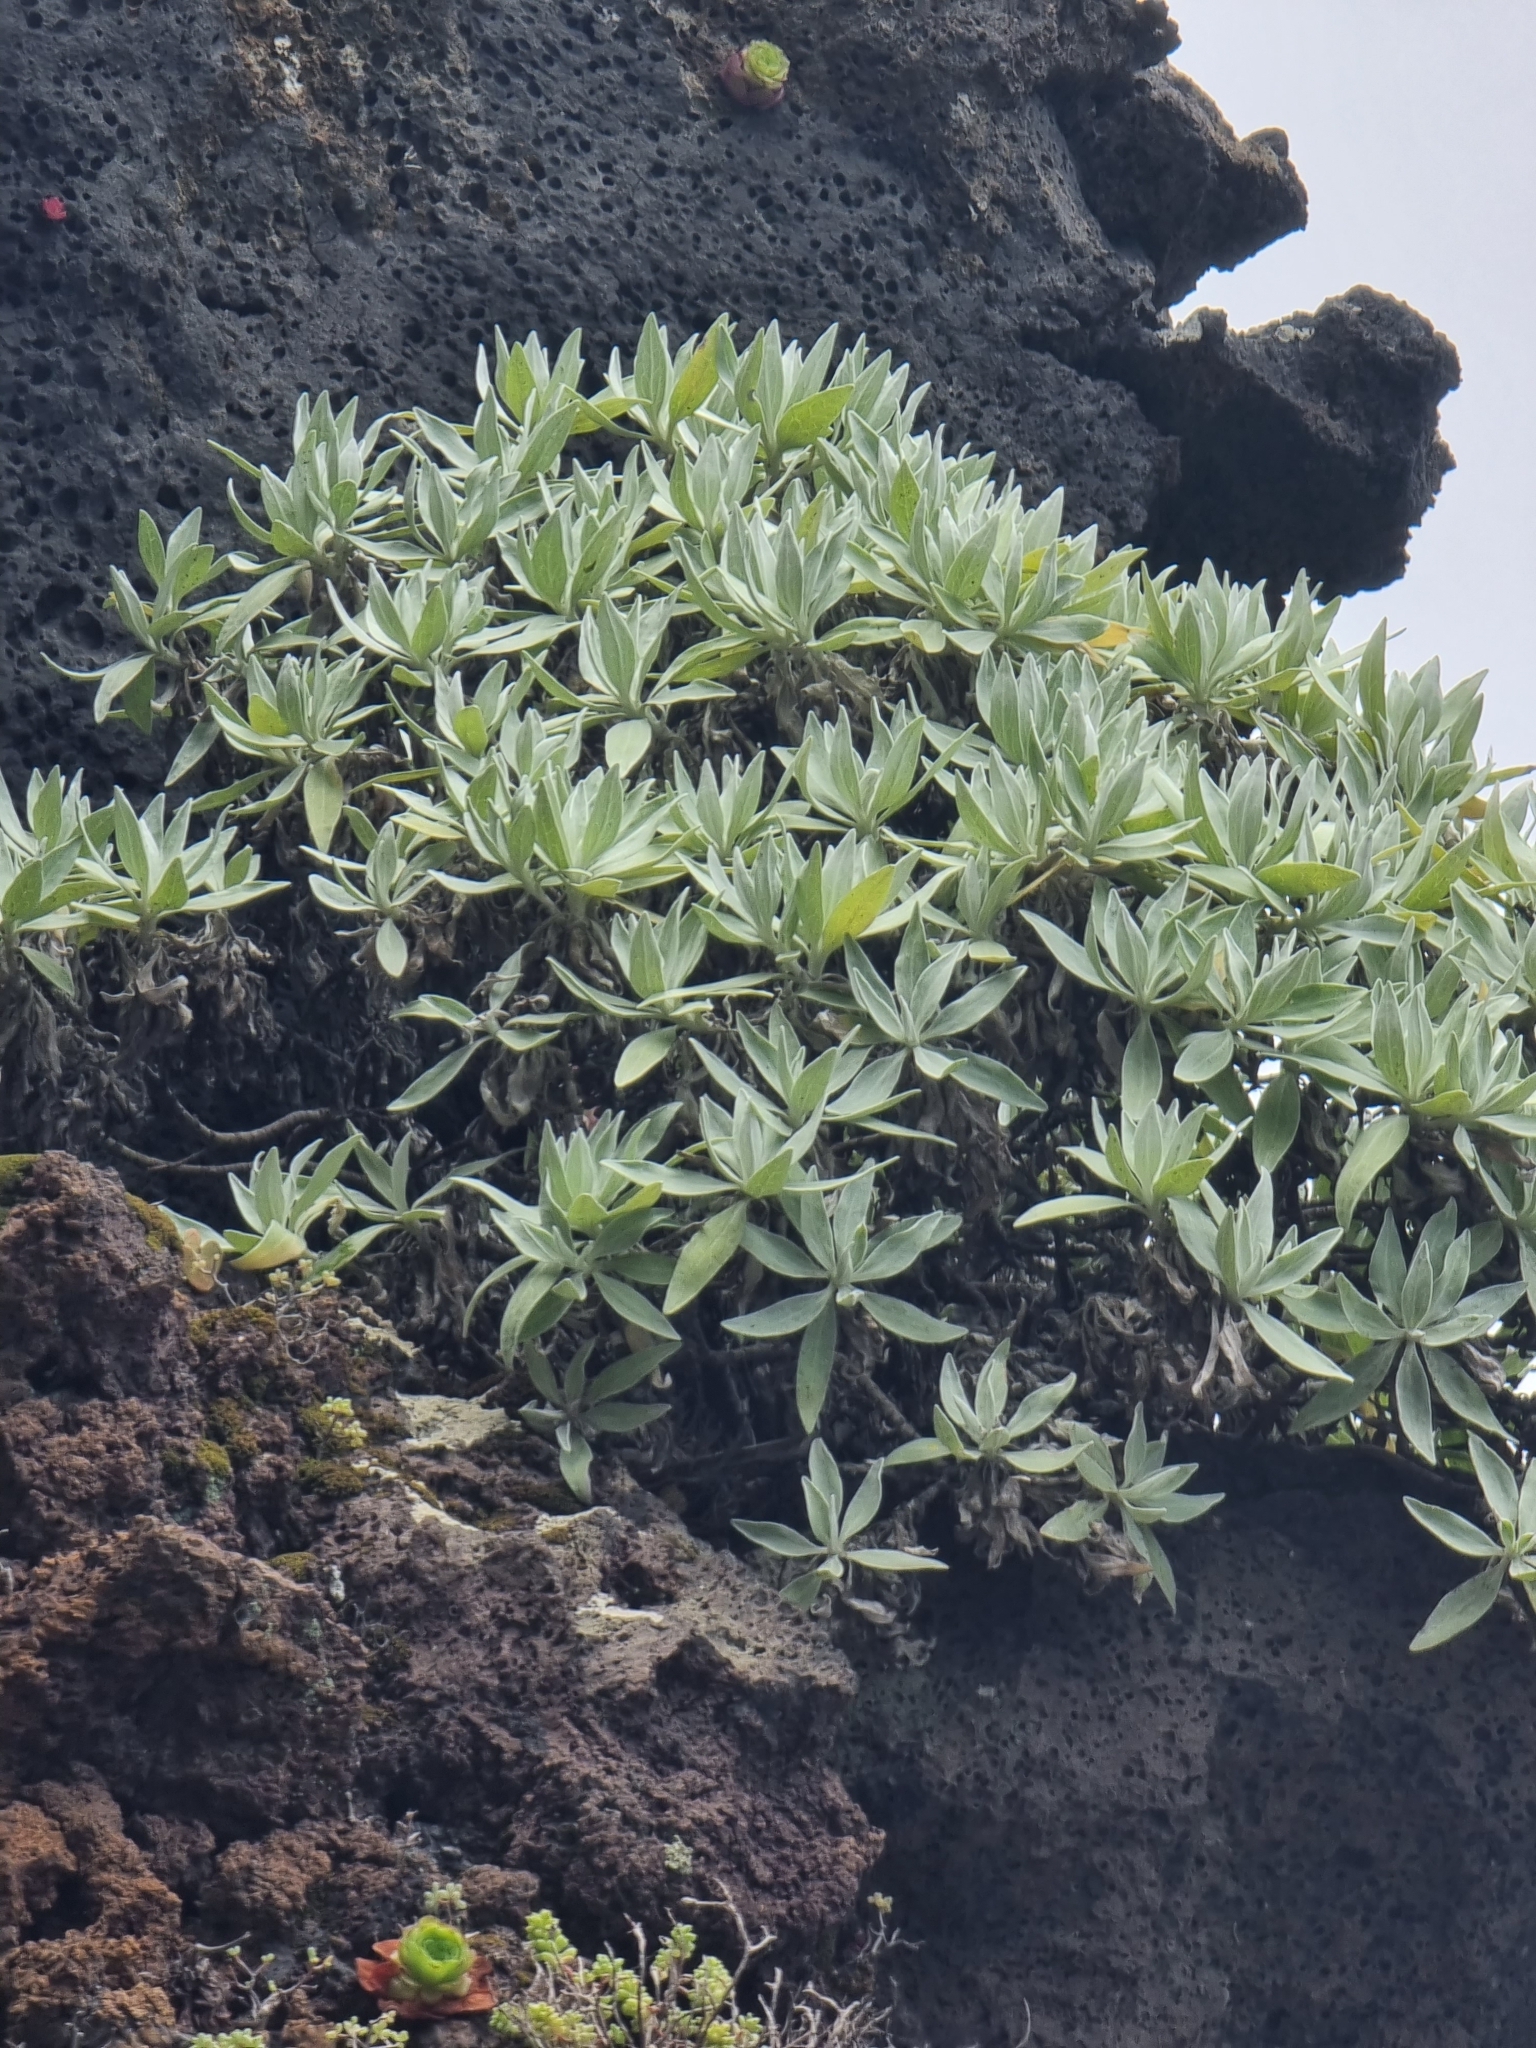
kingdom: Plantae
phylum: Tracheophyta
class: Magnoliopsida
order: Asterales
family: Asteraceae
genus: Helichrysum
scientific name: Helichrysum melaleucum
